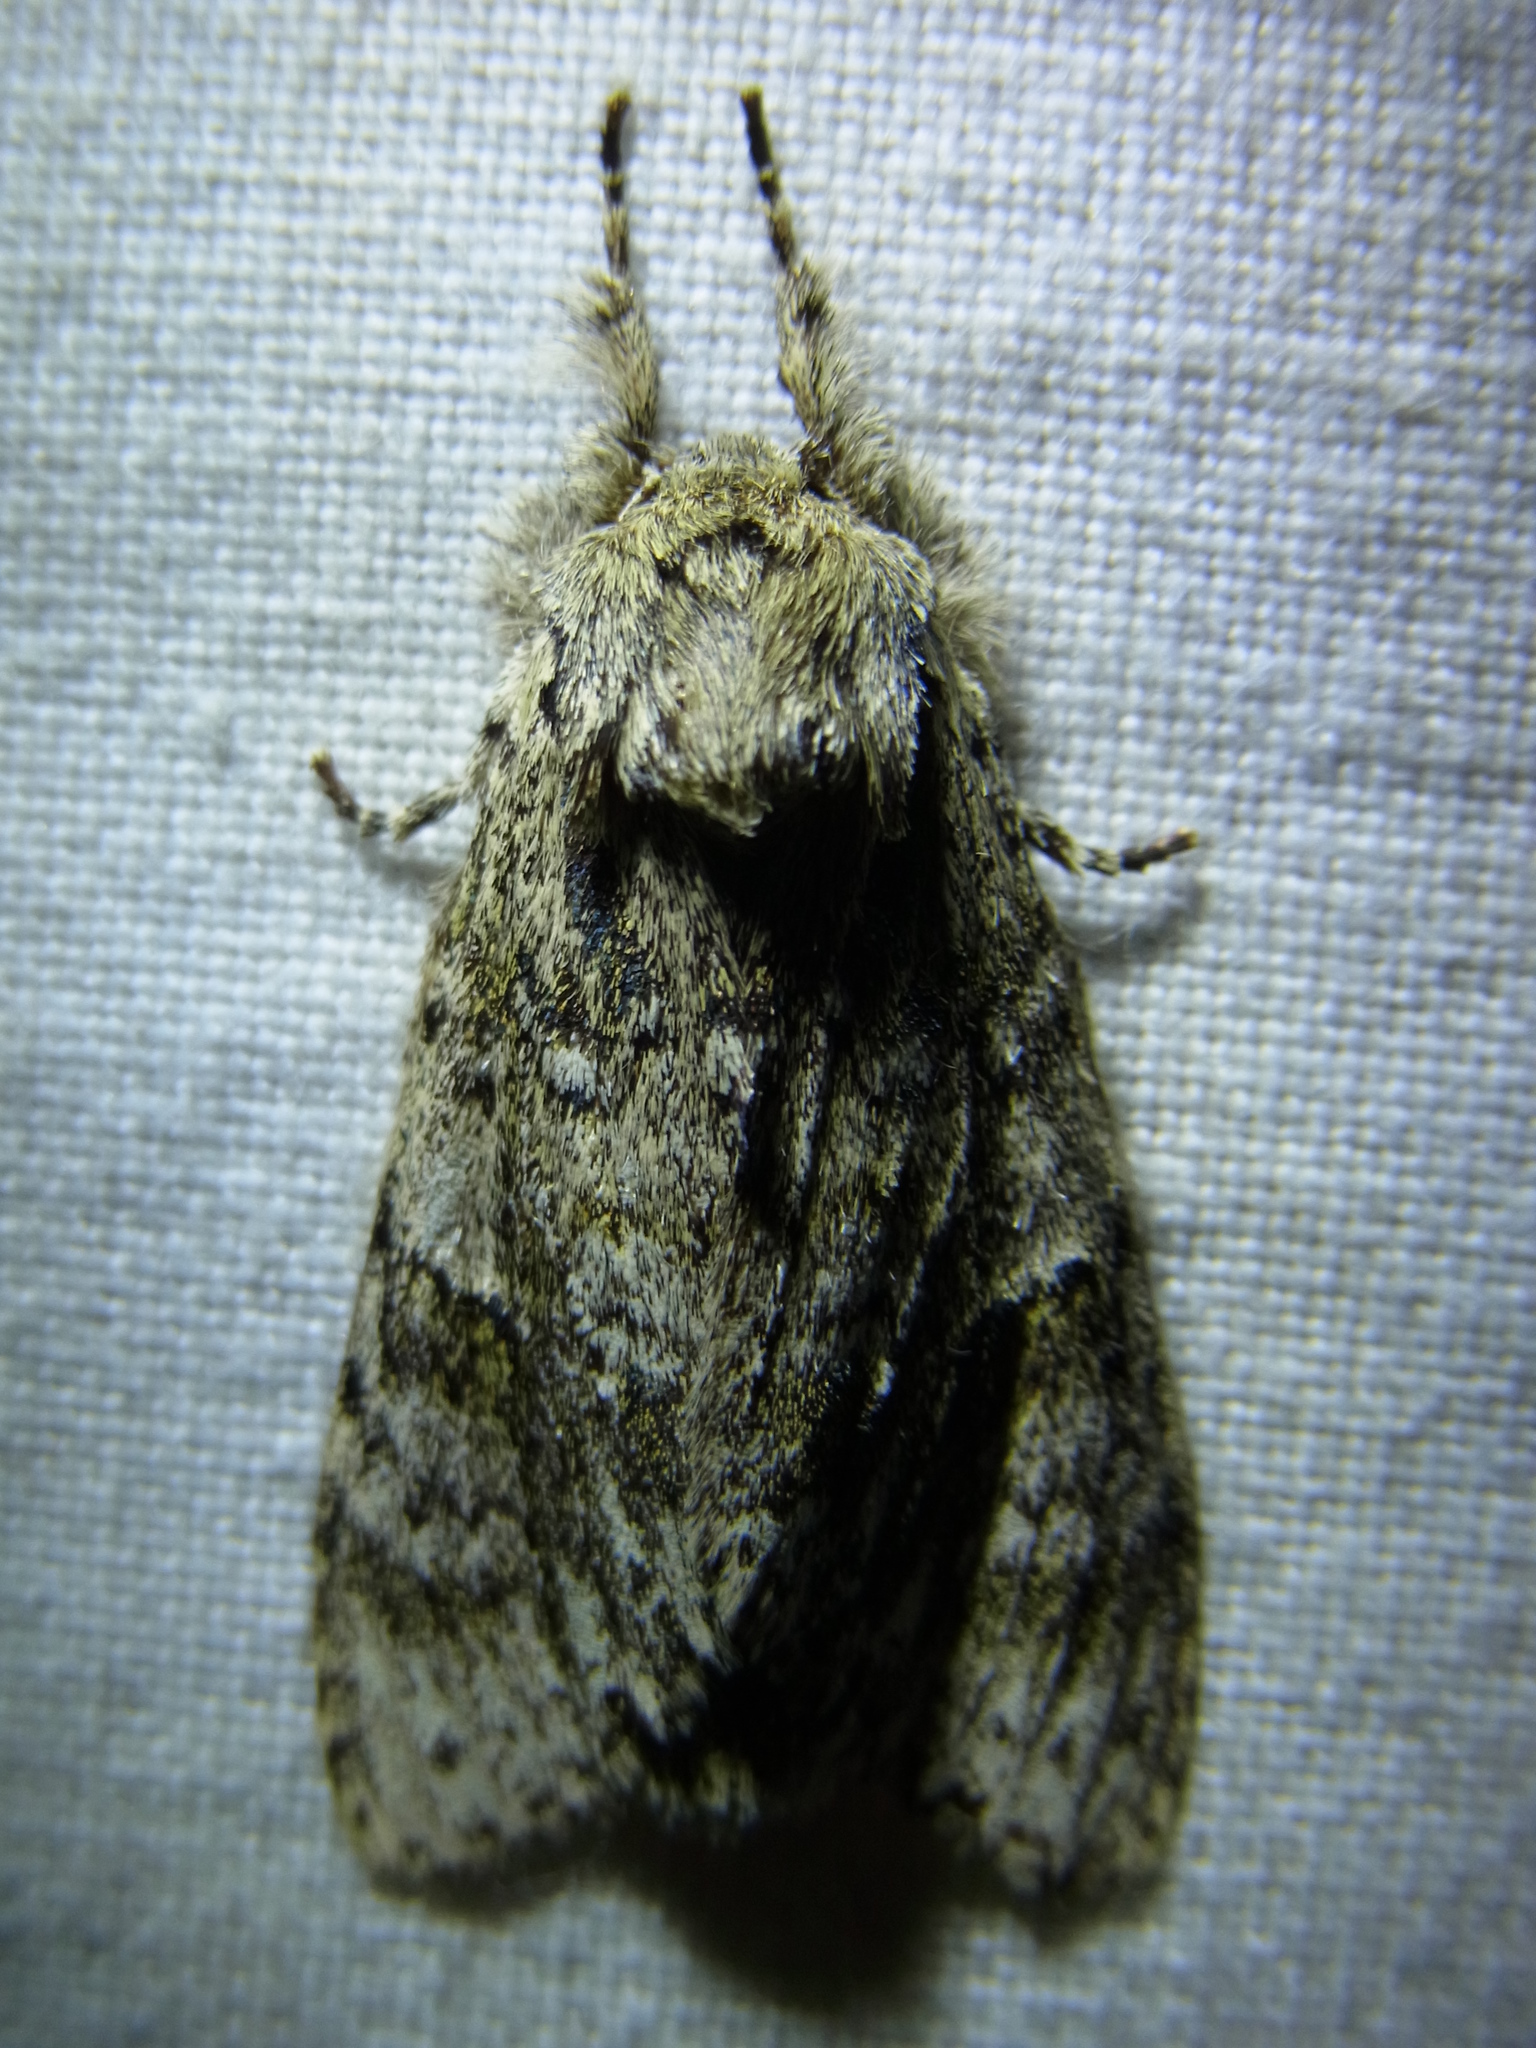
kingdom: Animalia
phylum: Arthropoda
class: Insecta
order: Lepidoptera
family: Notodontidae
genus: Pheosiopsis
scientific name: Pheosiopsis cinerea
